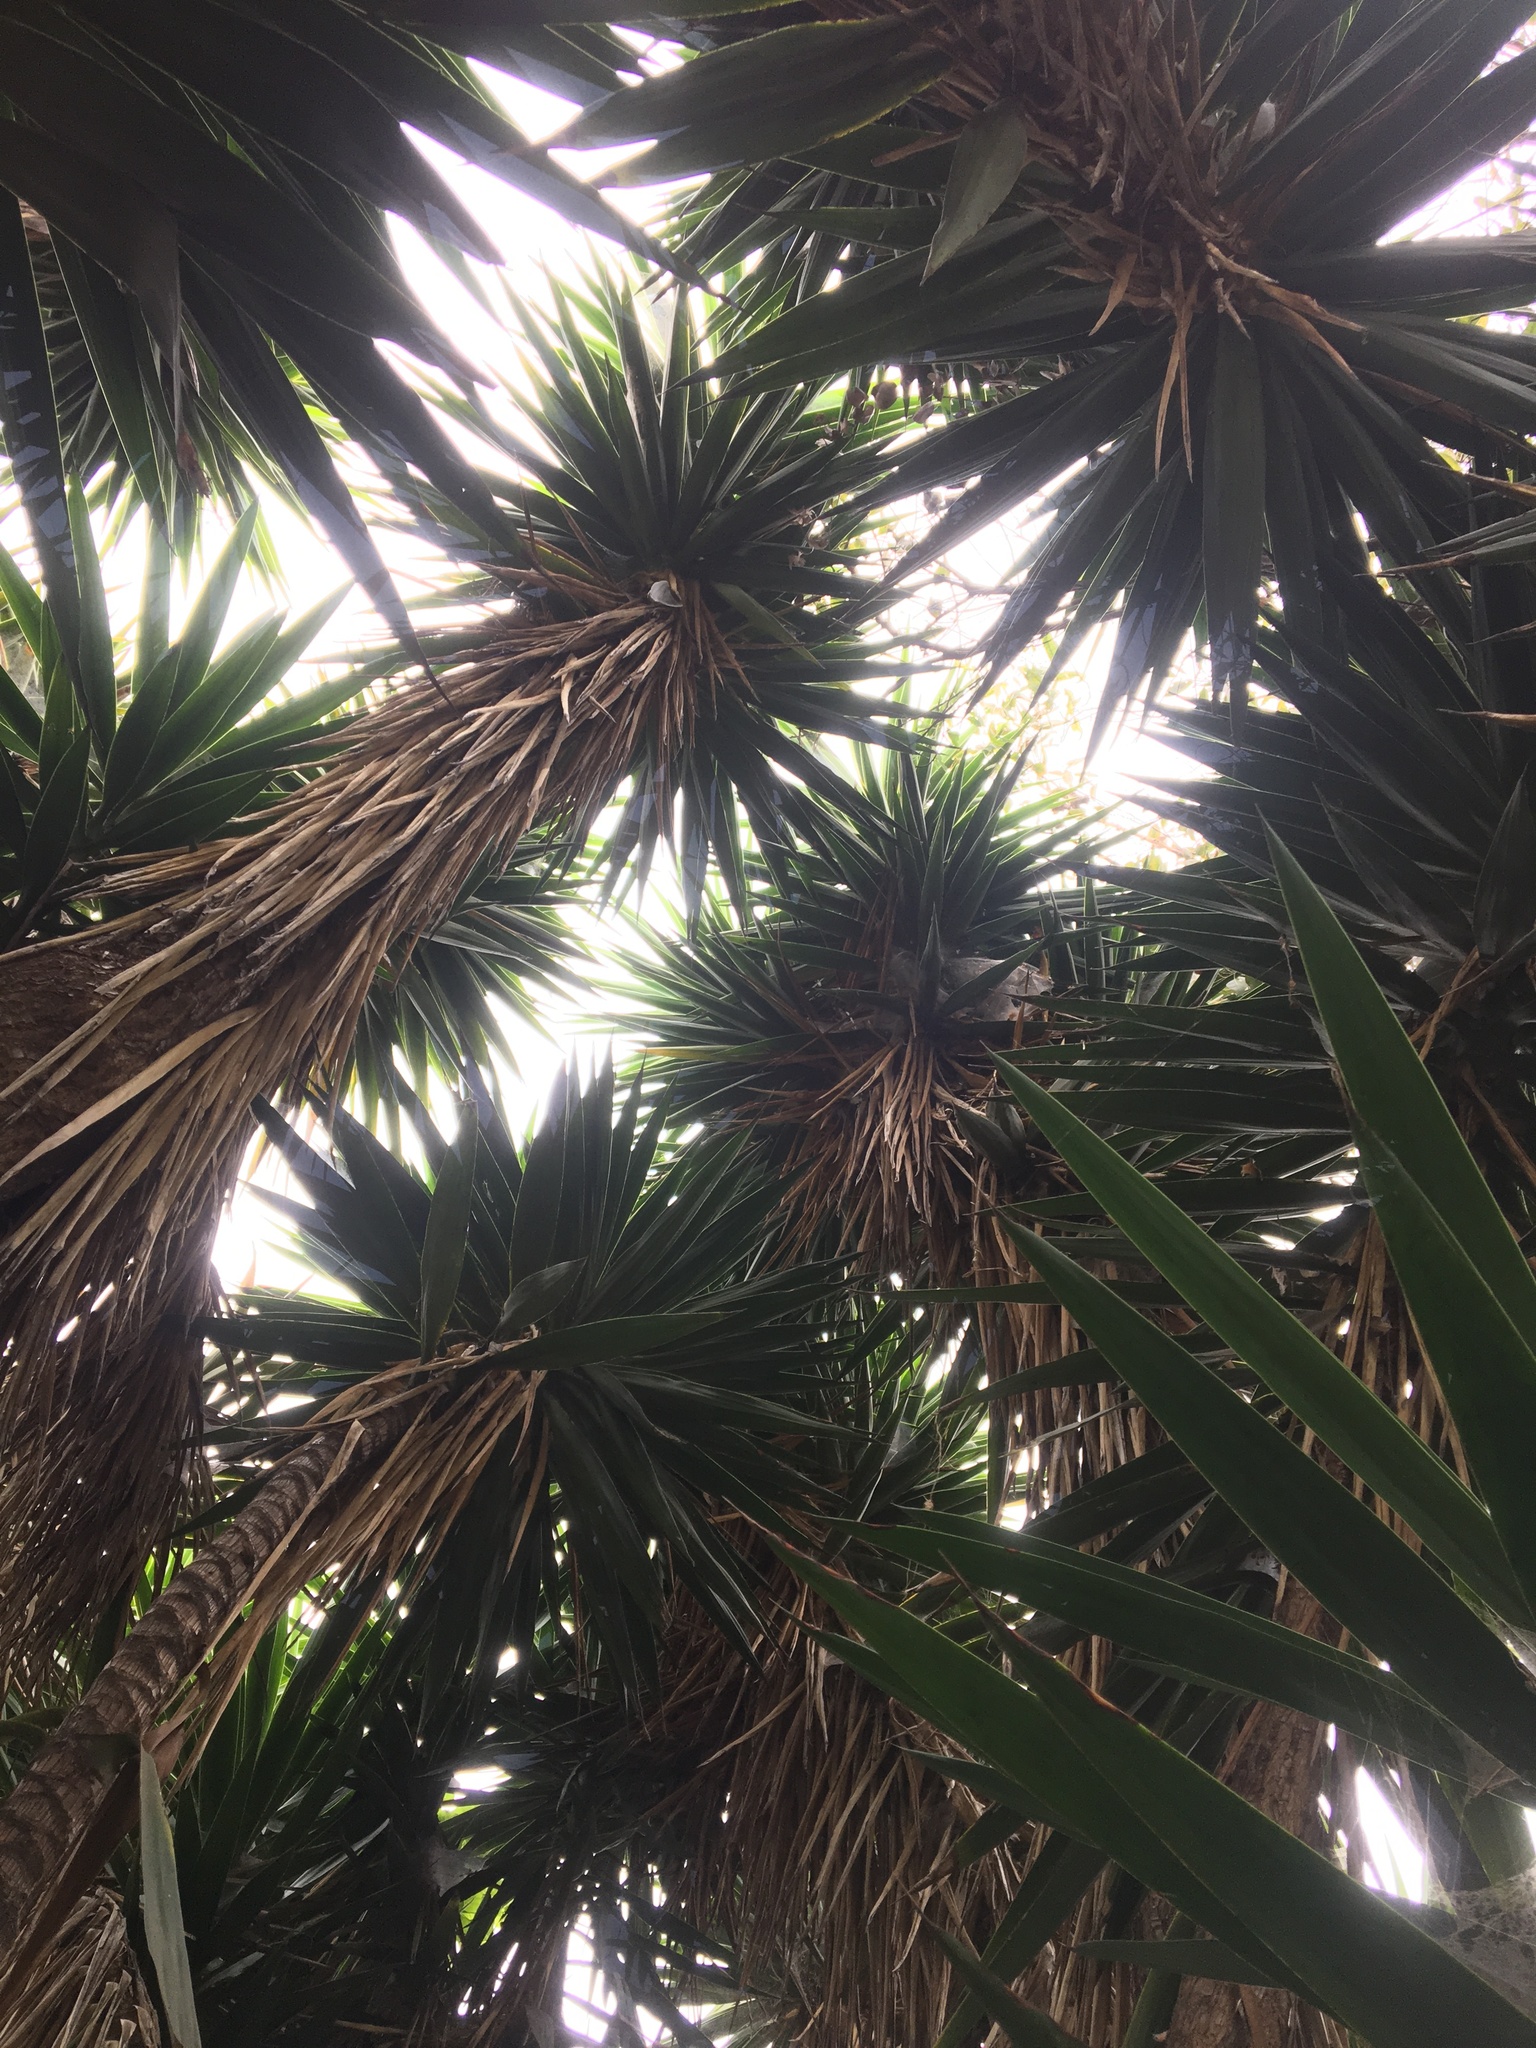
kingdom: Animalia
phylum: Chordata
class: Aves
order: Passeriformes
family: Icteridae
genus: Icterus
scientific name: Icterus cucullatus
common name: Hooded oriole
